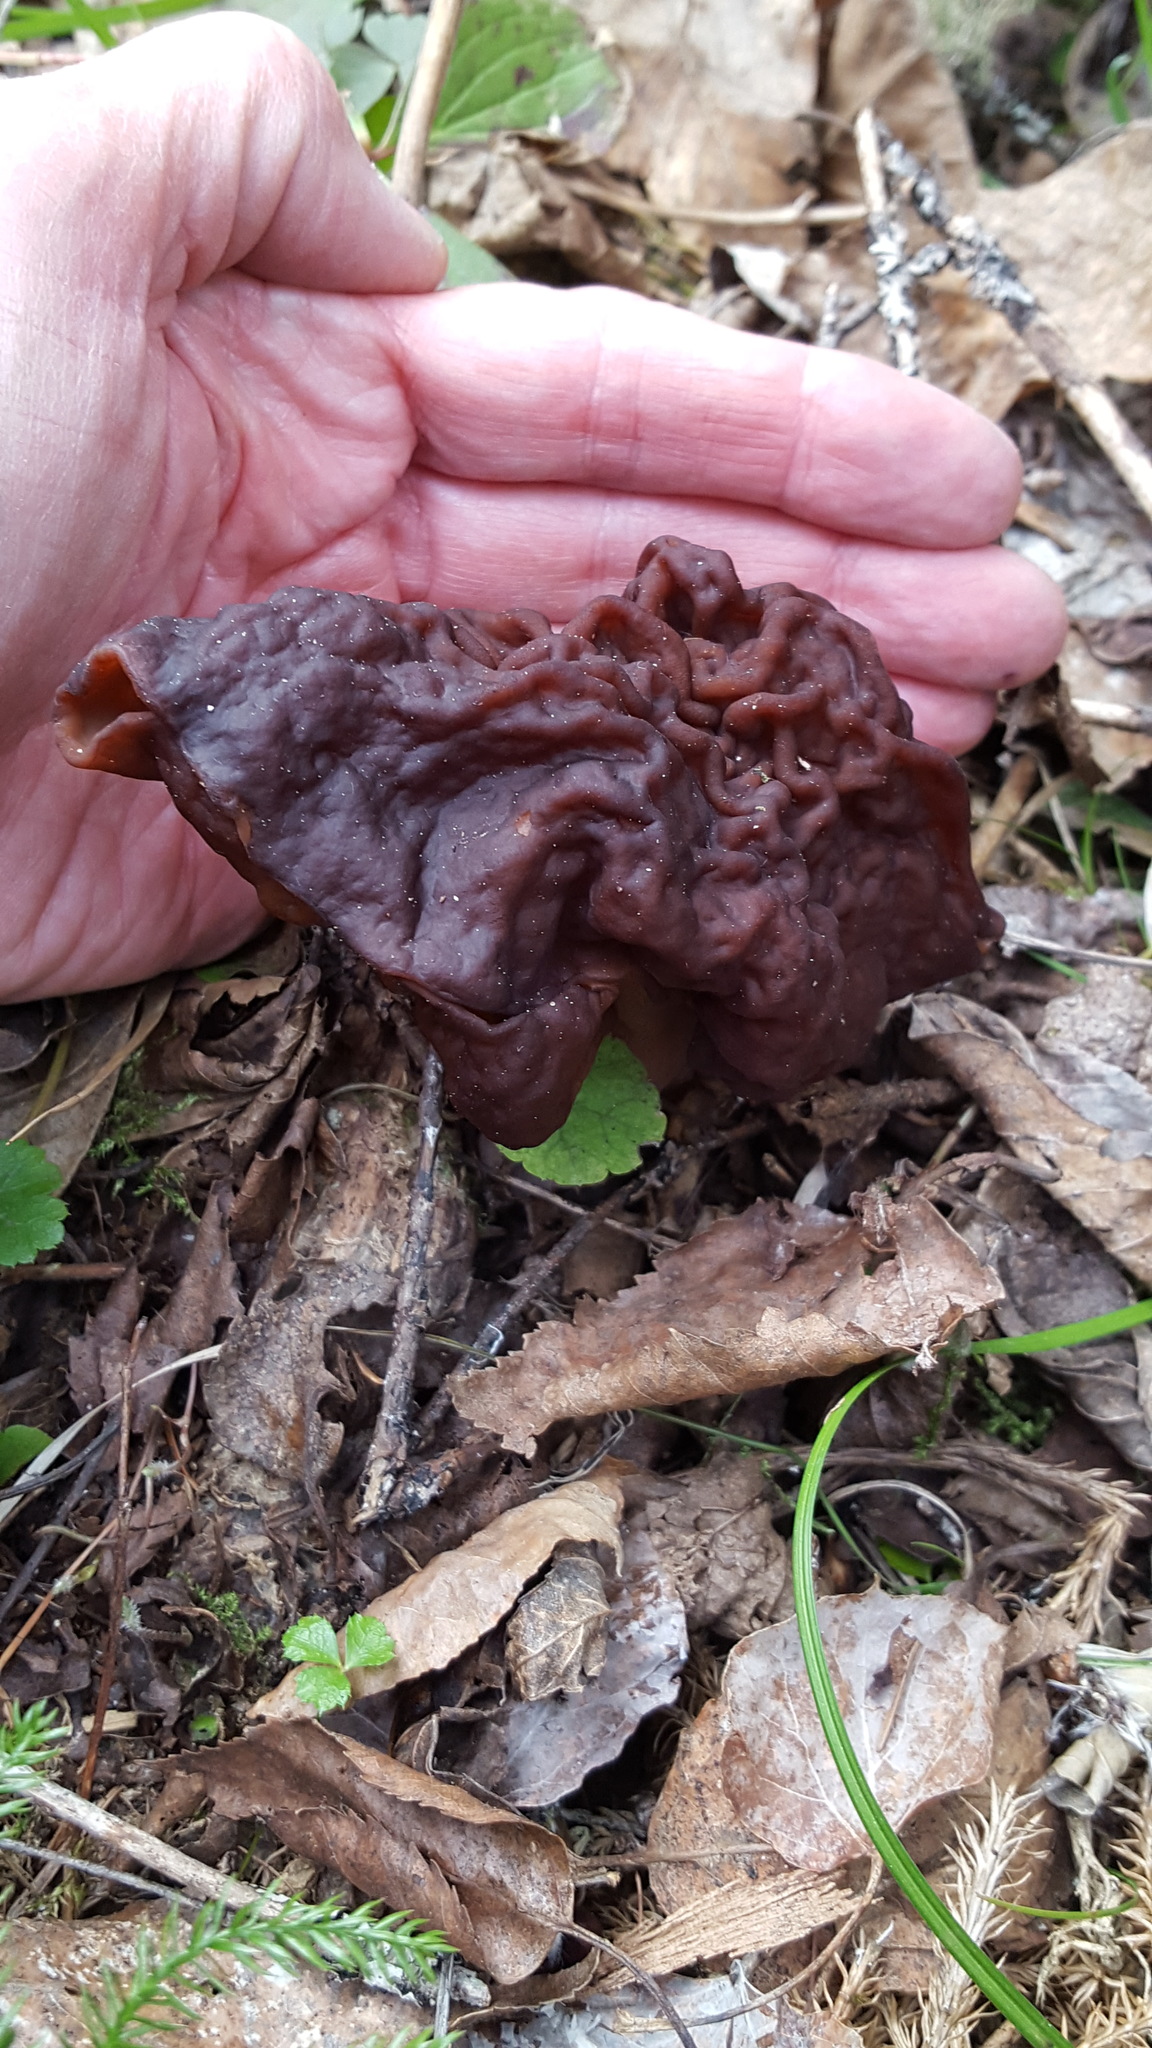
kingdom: Fungi
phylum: Ascomycota
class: Pezizomycetes
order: Pezizales
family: Discinaceae
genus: Gyromitra
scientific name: Gyromitra esculenta
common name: False morel
